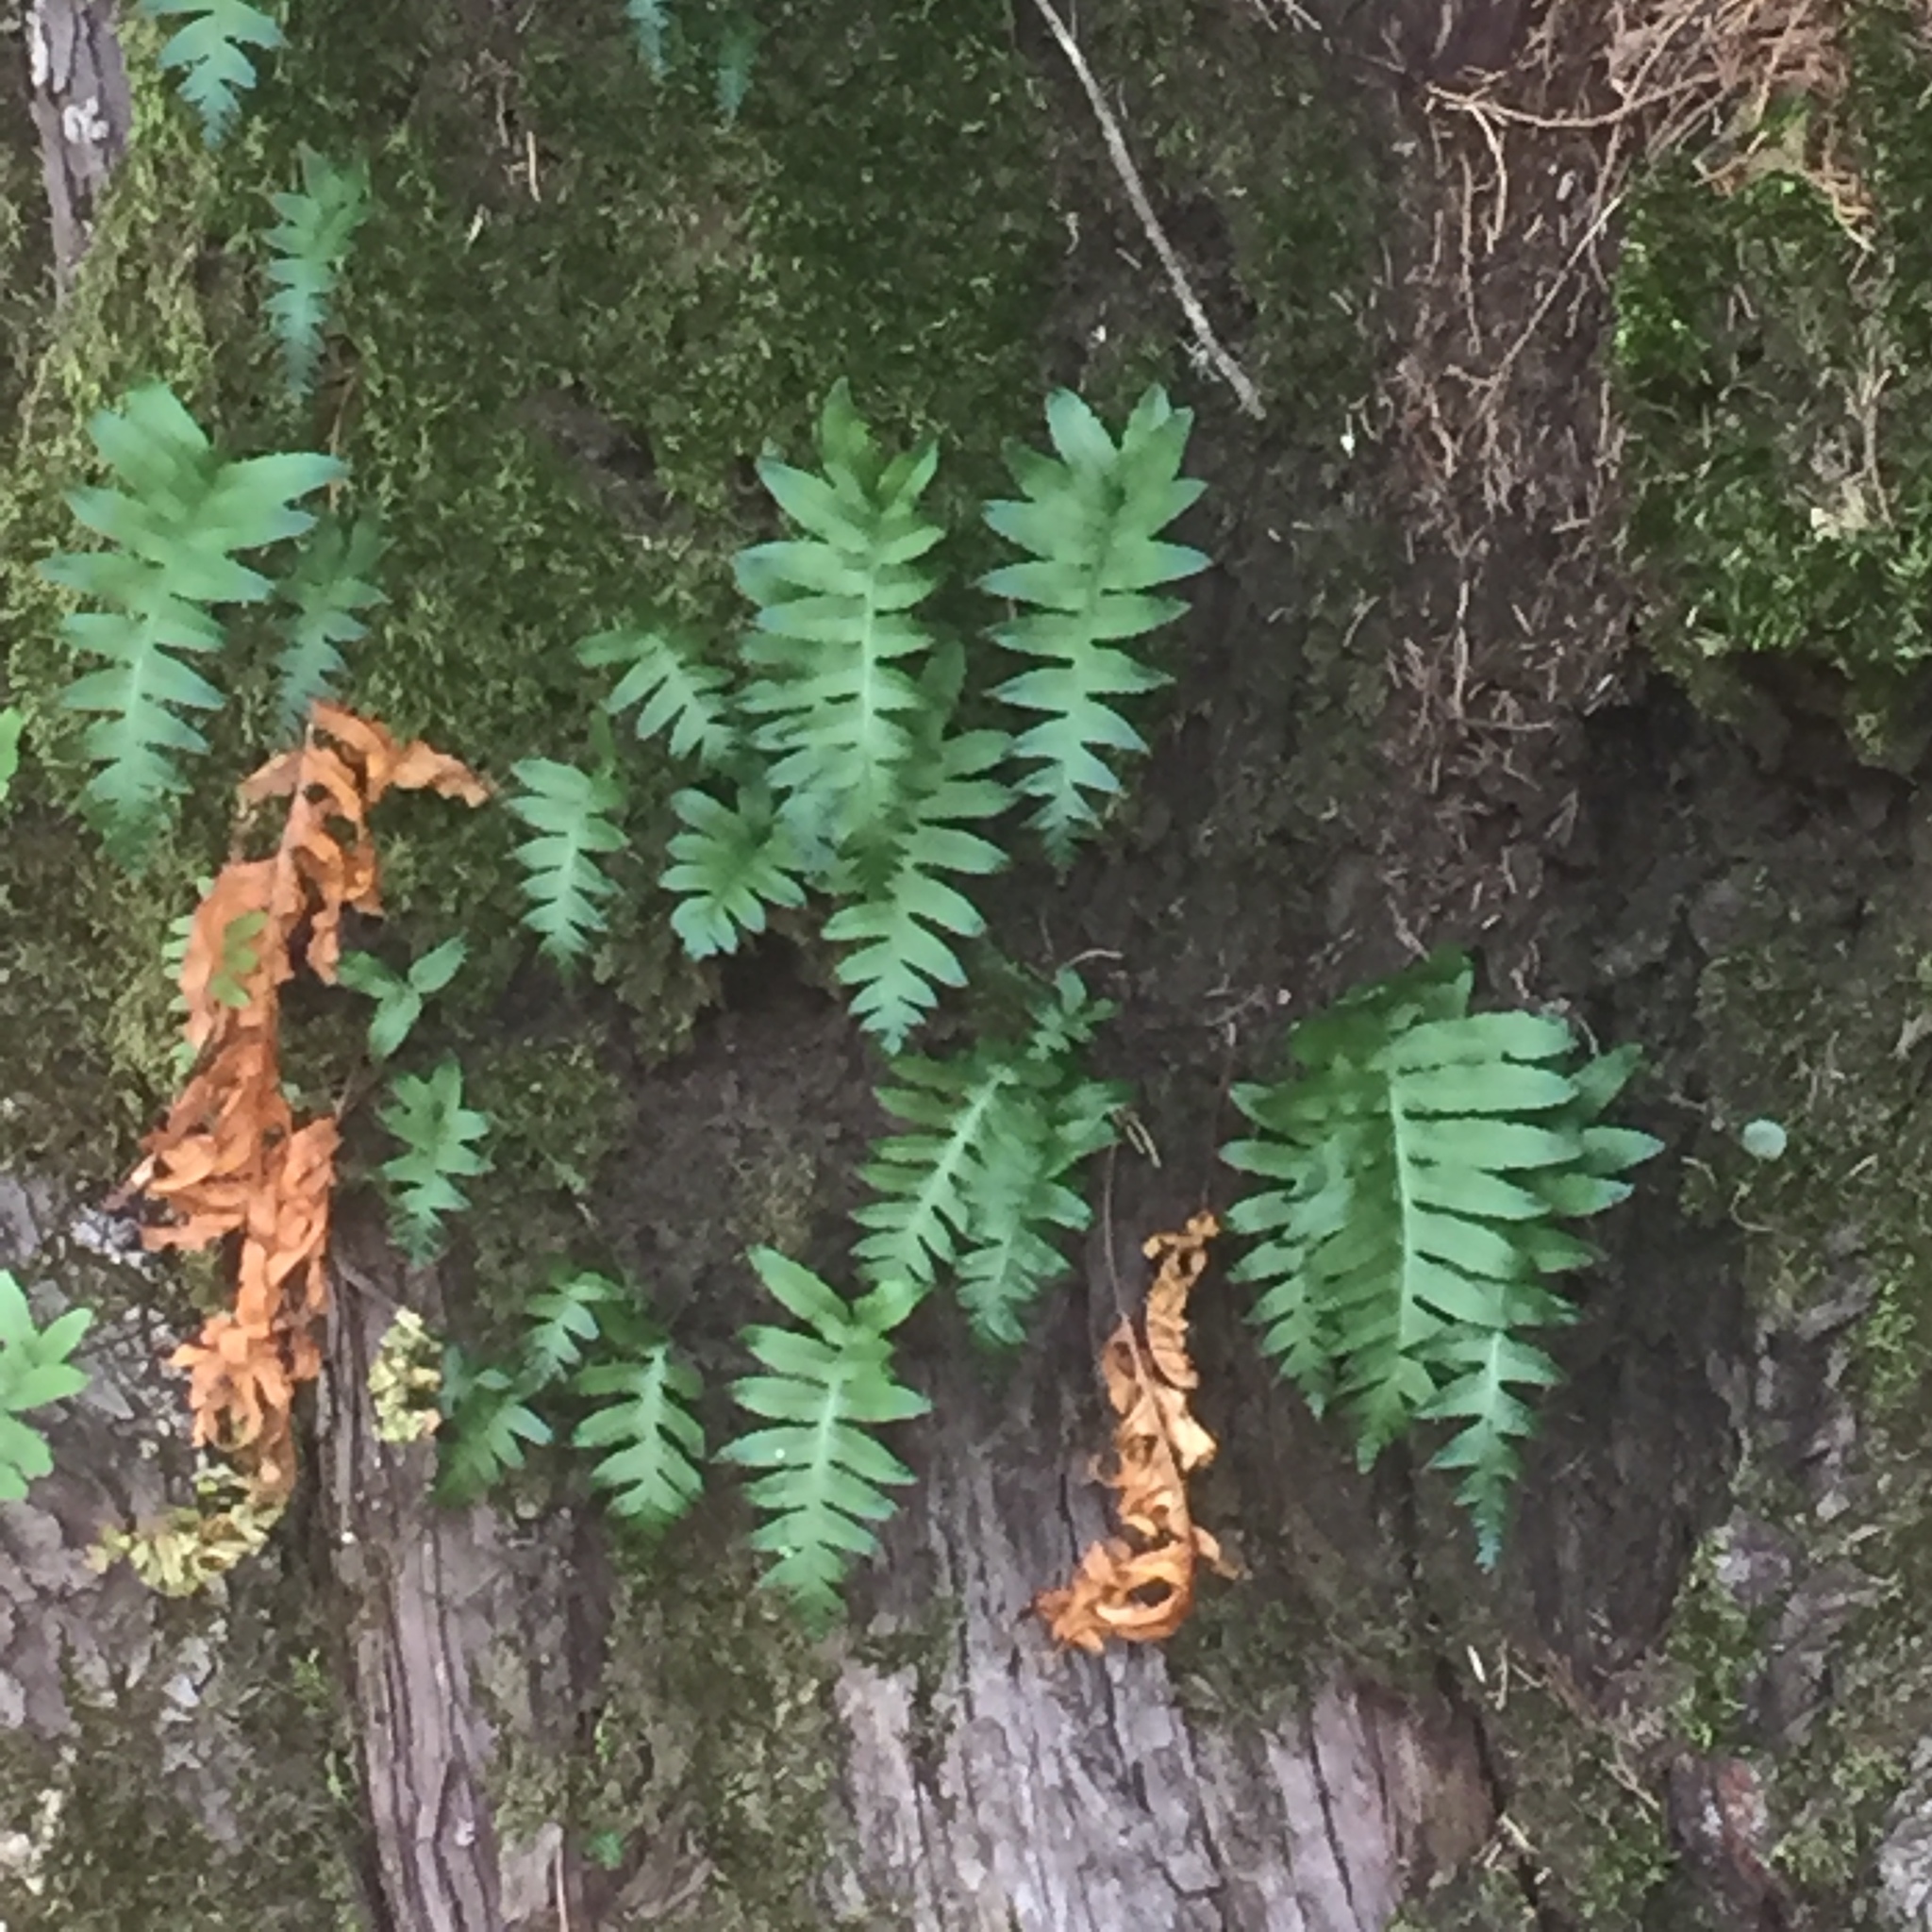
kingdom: Plantae
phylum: Tracheophyta
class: Polypodiopsida
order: Polypodiales
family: Polypodiaceae
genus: Polypodium
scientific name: Polypodium macaronesicum
